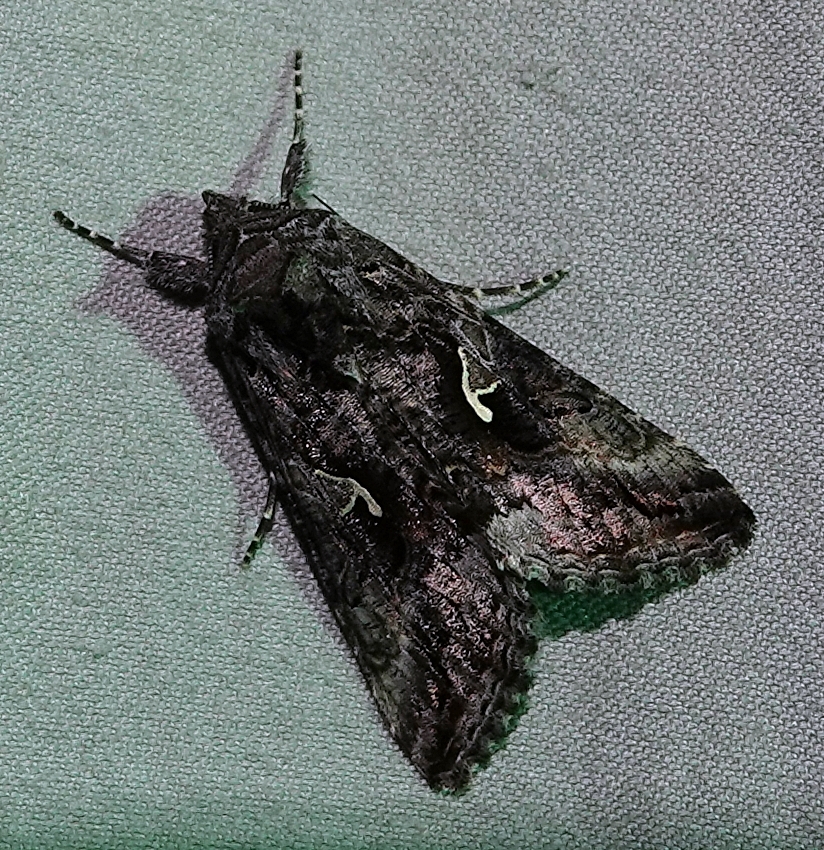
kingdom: Animalia
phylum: Arthropoda
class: Insecta
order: Lepidoptera
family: Noctuidae
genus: Autographa
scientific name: Autographa californica
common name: Alfalfa looper
